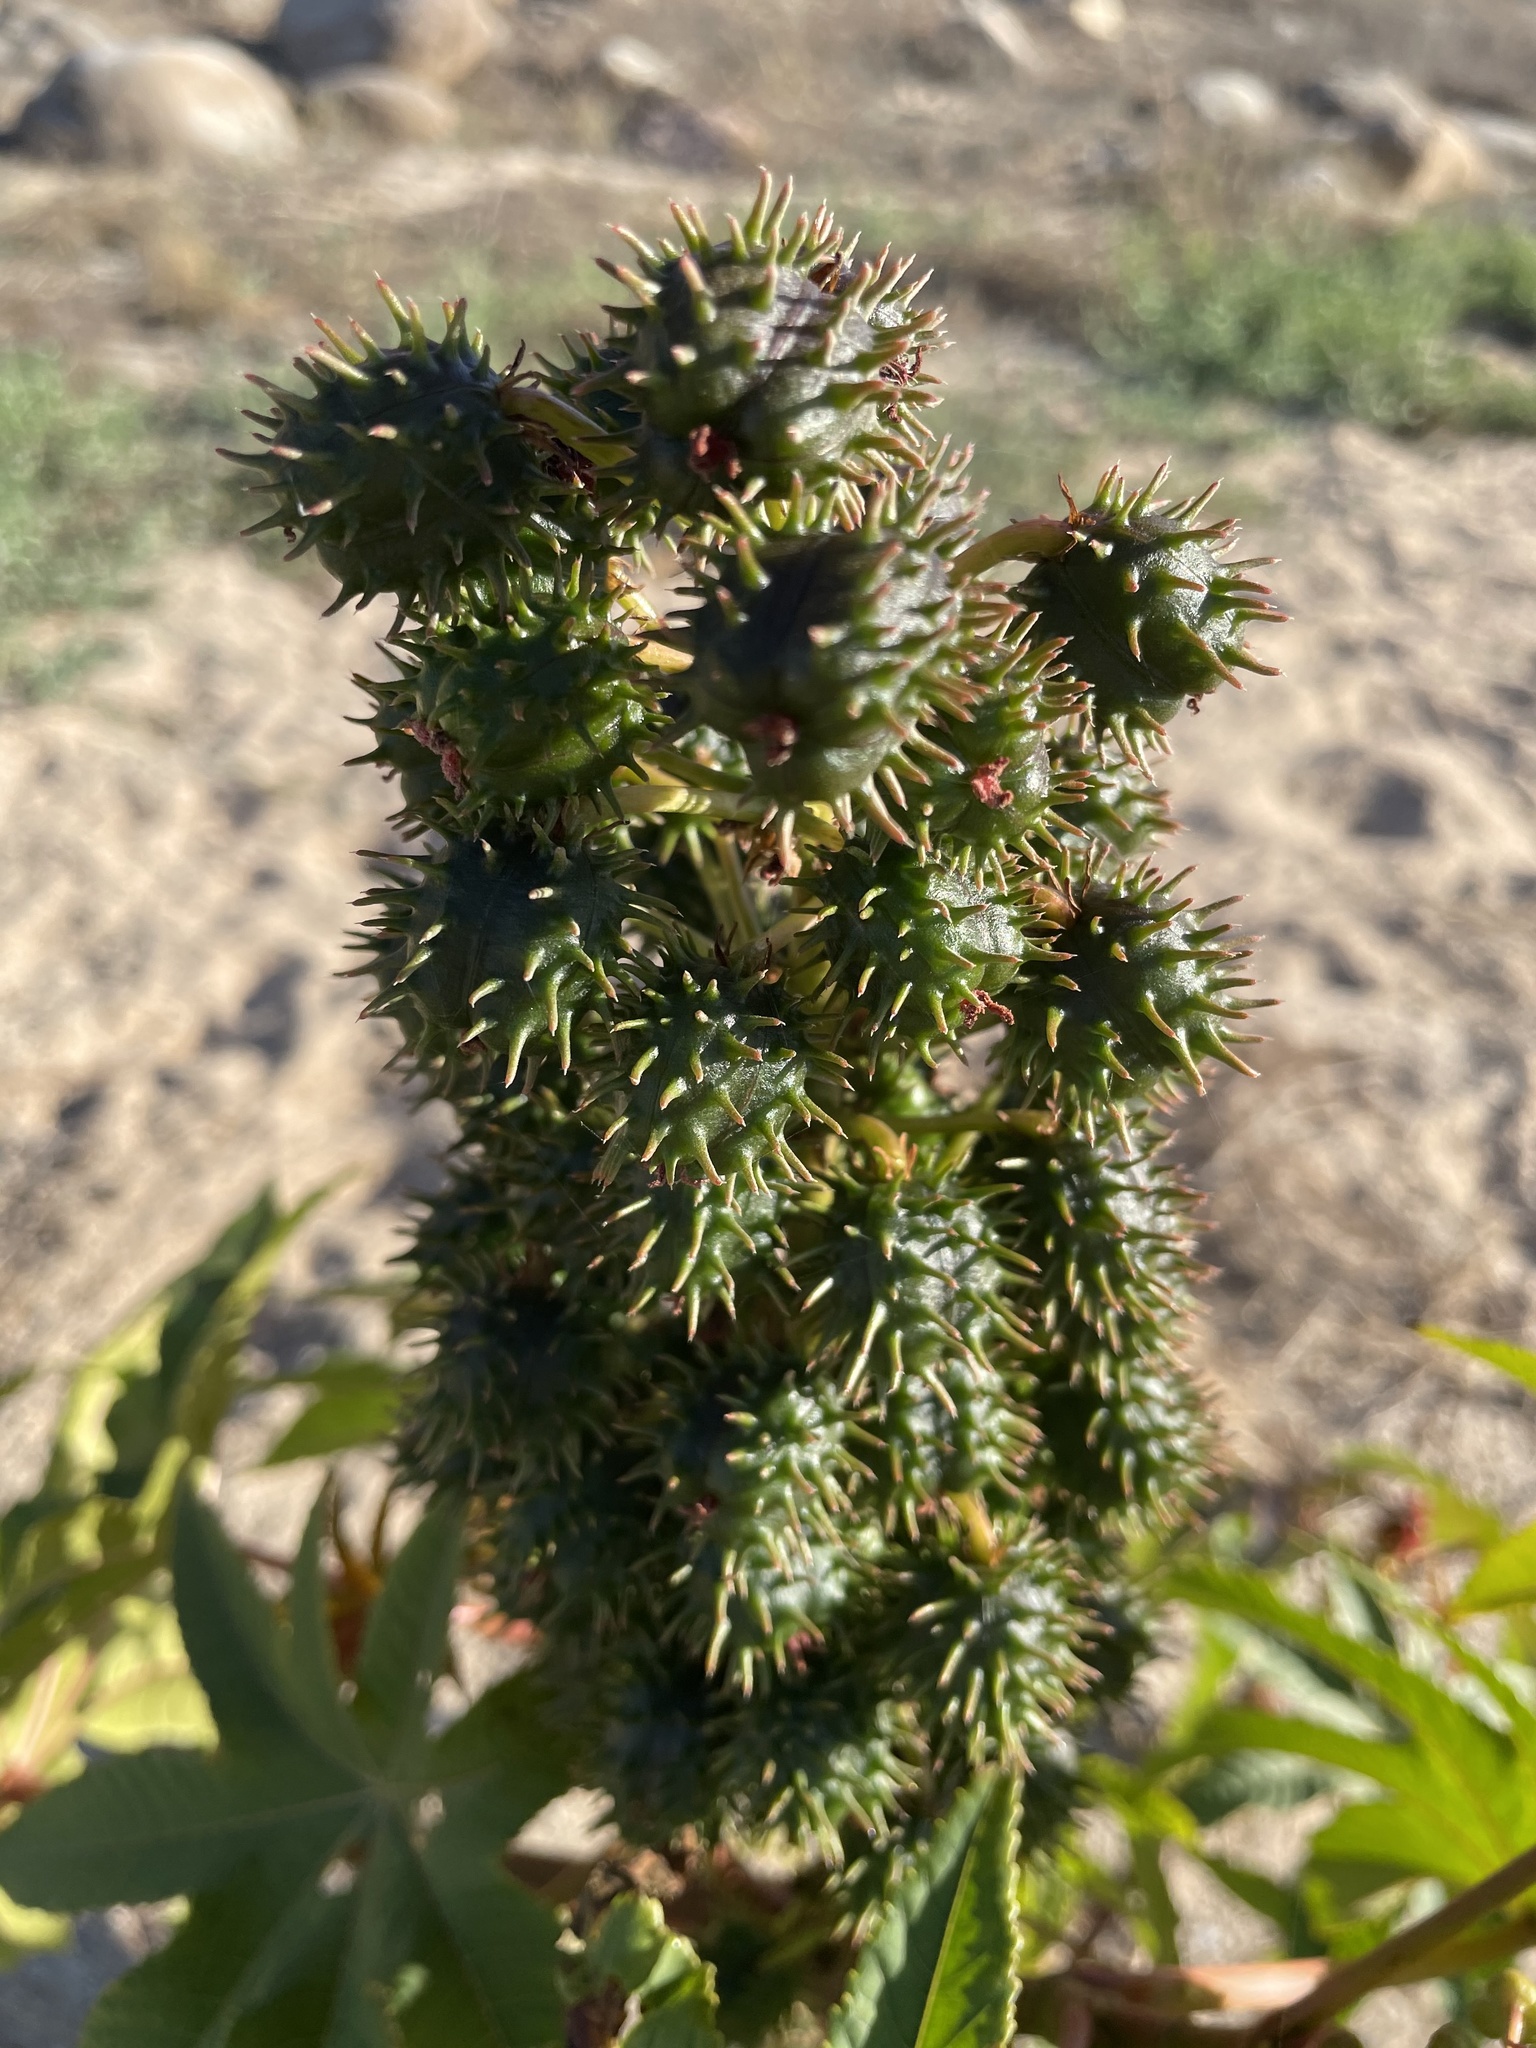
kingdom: Plantae
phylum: Tracheophyta
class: Magnoliopsida
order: Malpighiales
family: Euphorbiaceae
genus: Ricinus
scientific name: Ricinus communis
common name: Castor-oil-plant
